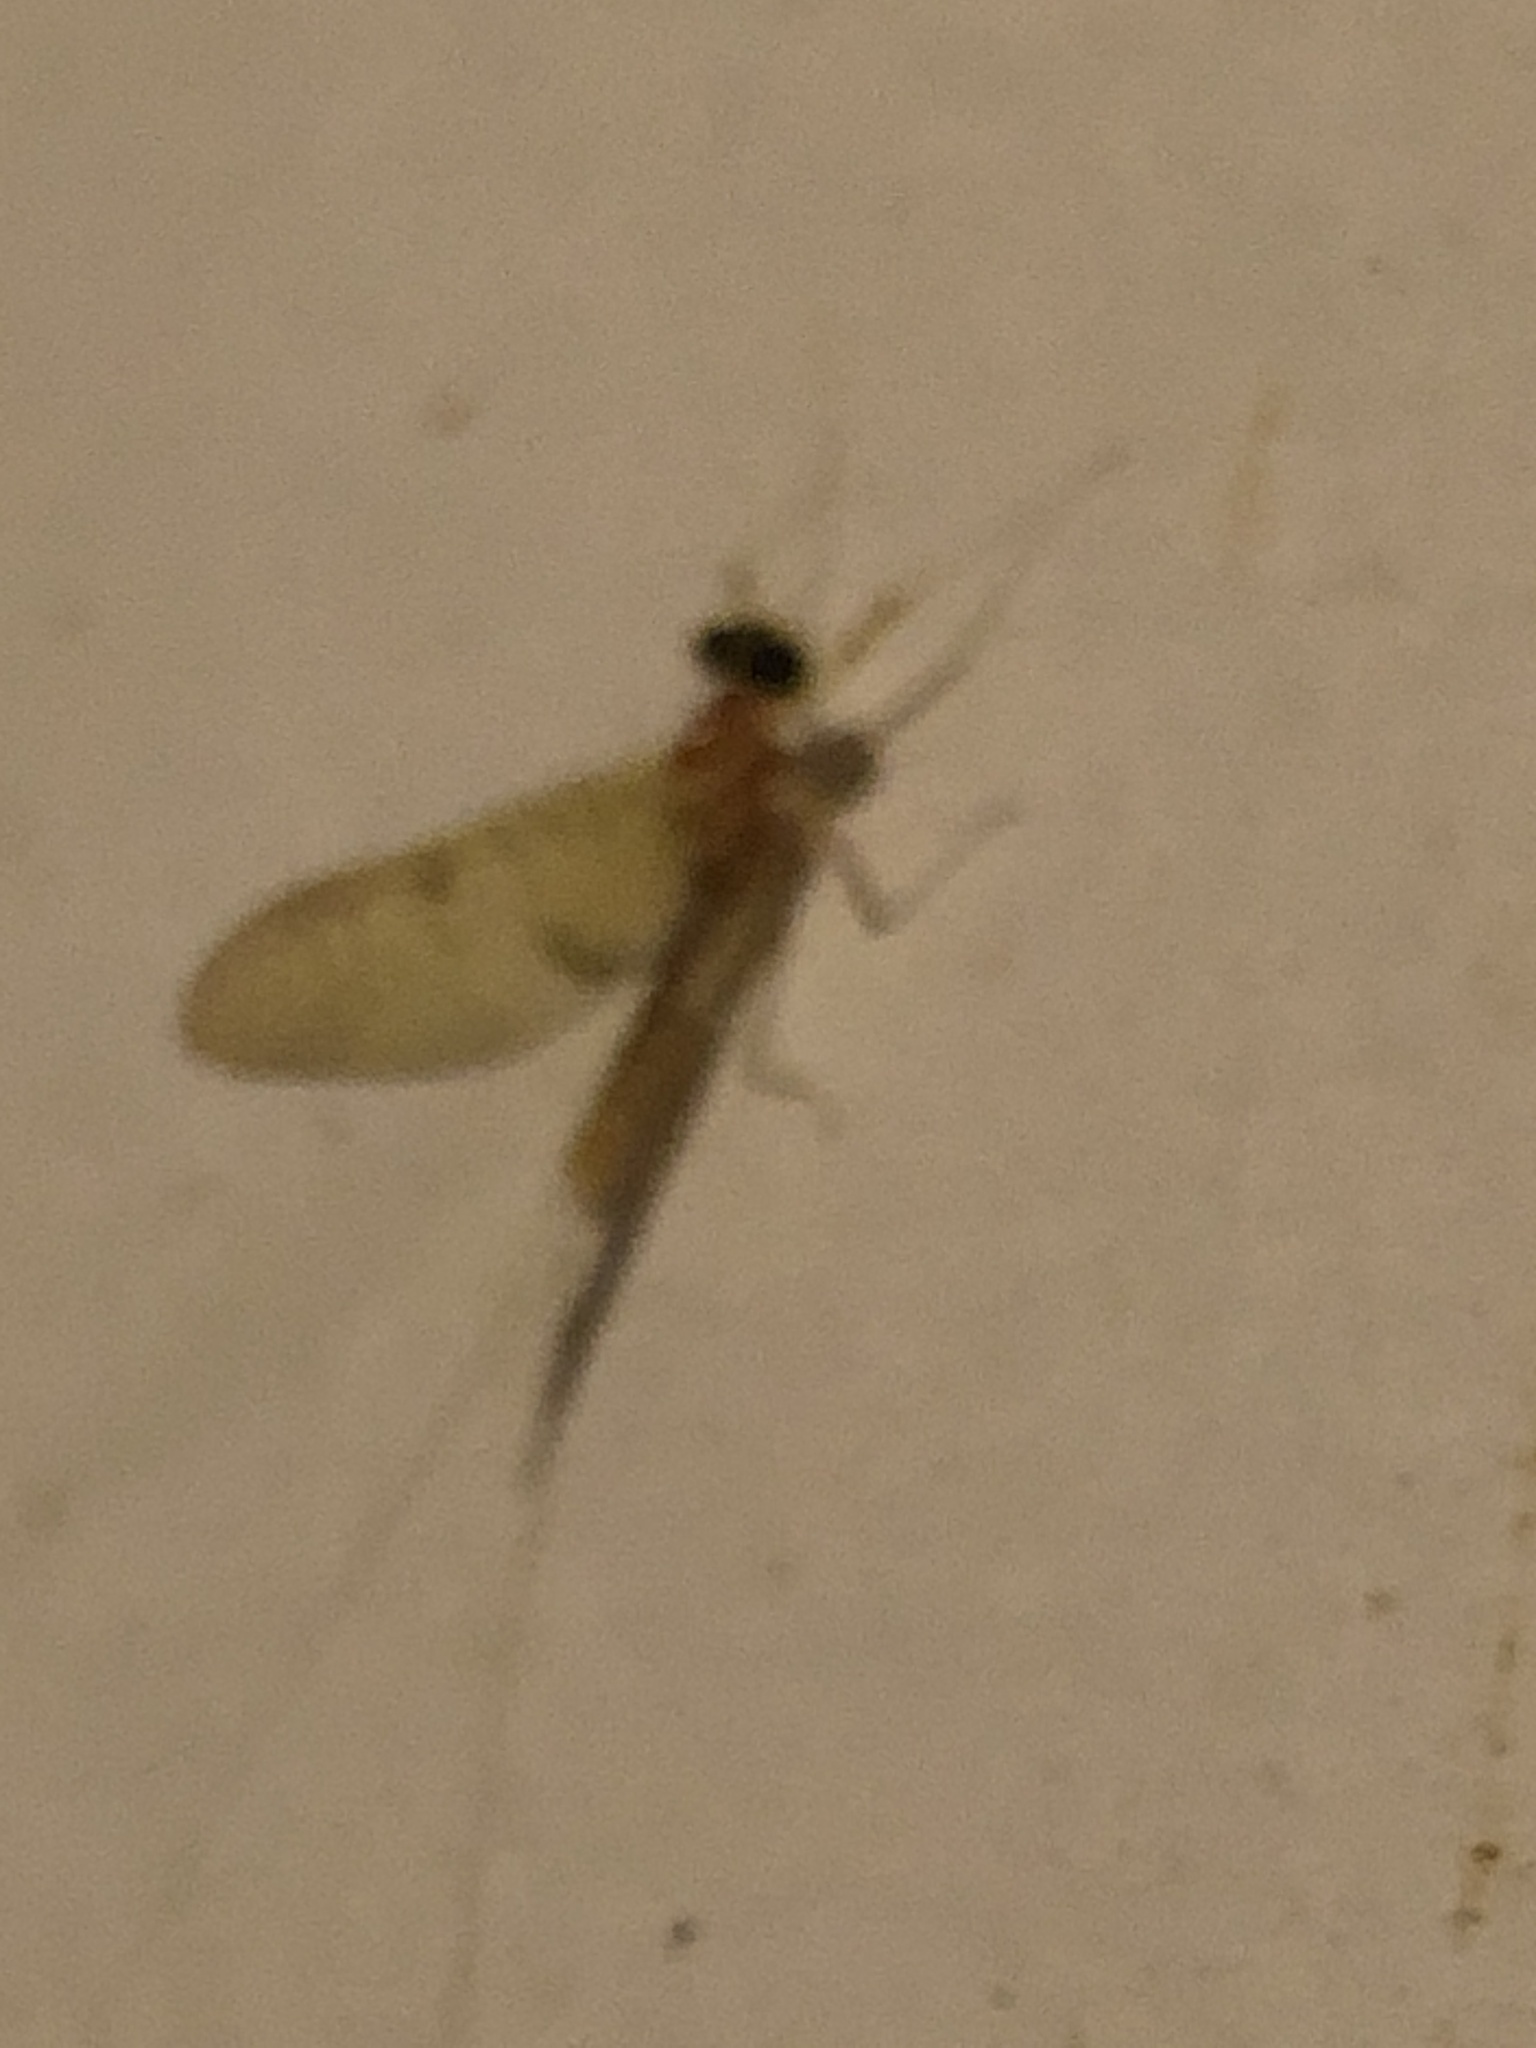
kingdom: Animalia
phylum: Arthropoda
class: Insecta
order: Ephemeroptera
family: Heptageniidae
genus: Stenacron
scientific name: Stenacron interpunctatum
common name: Orange cahill
